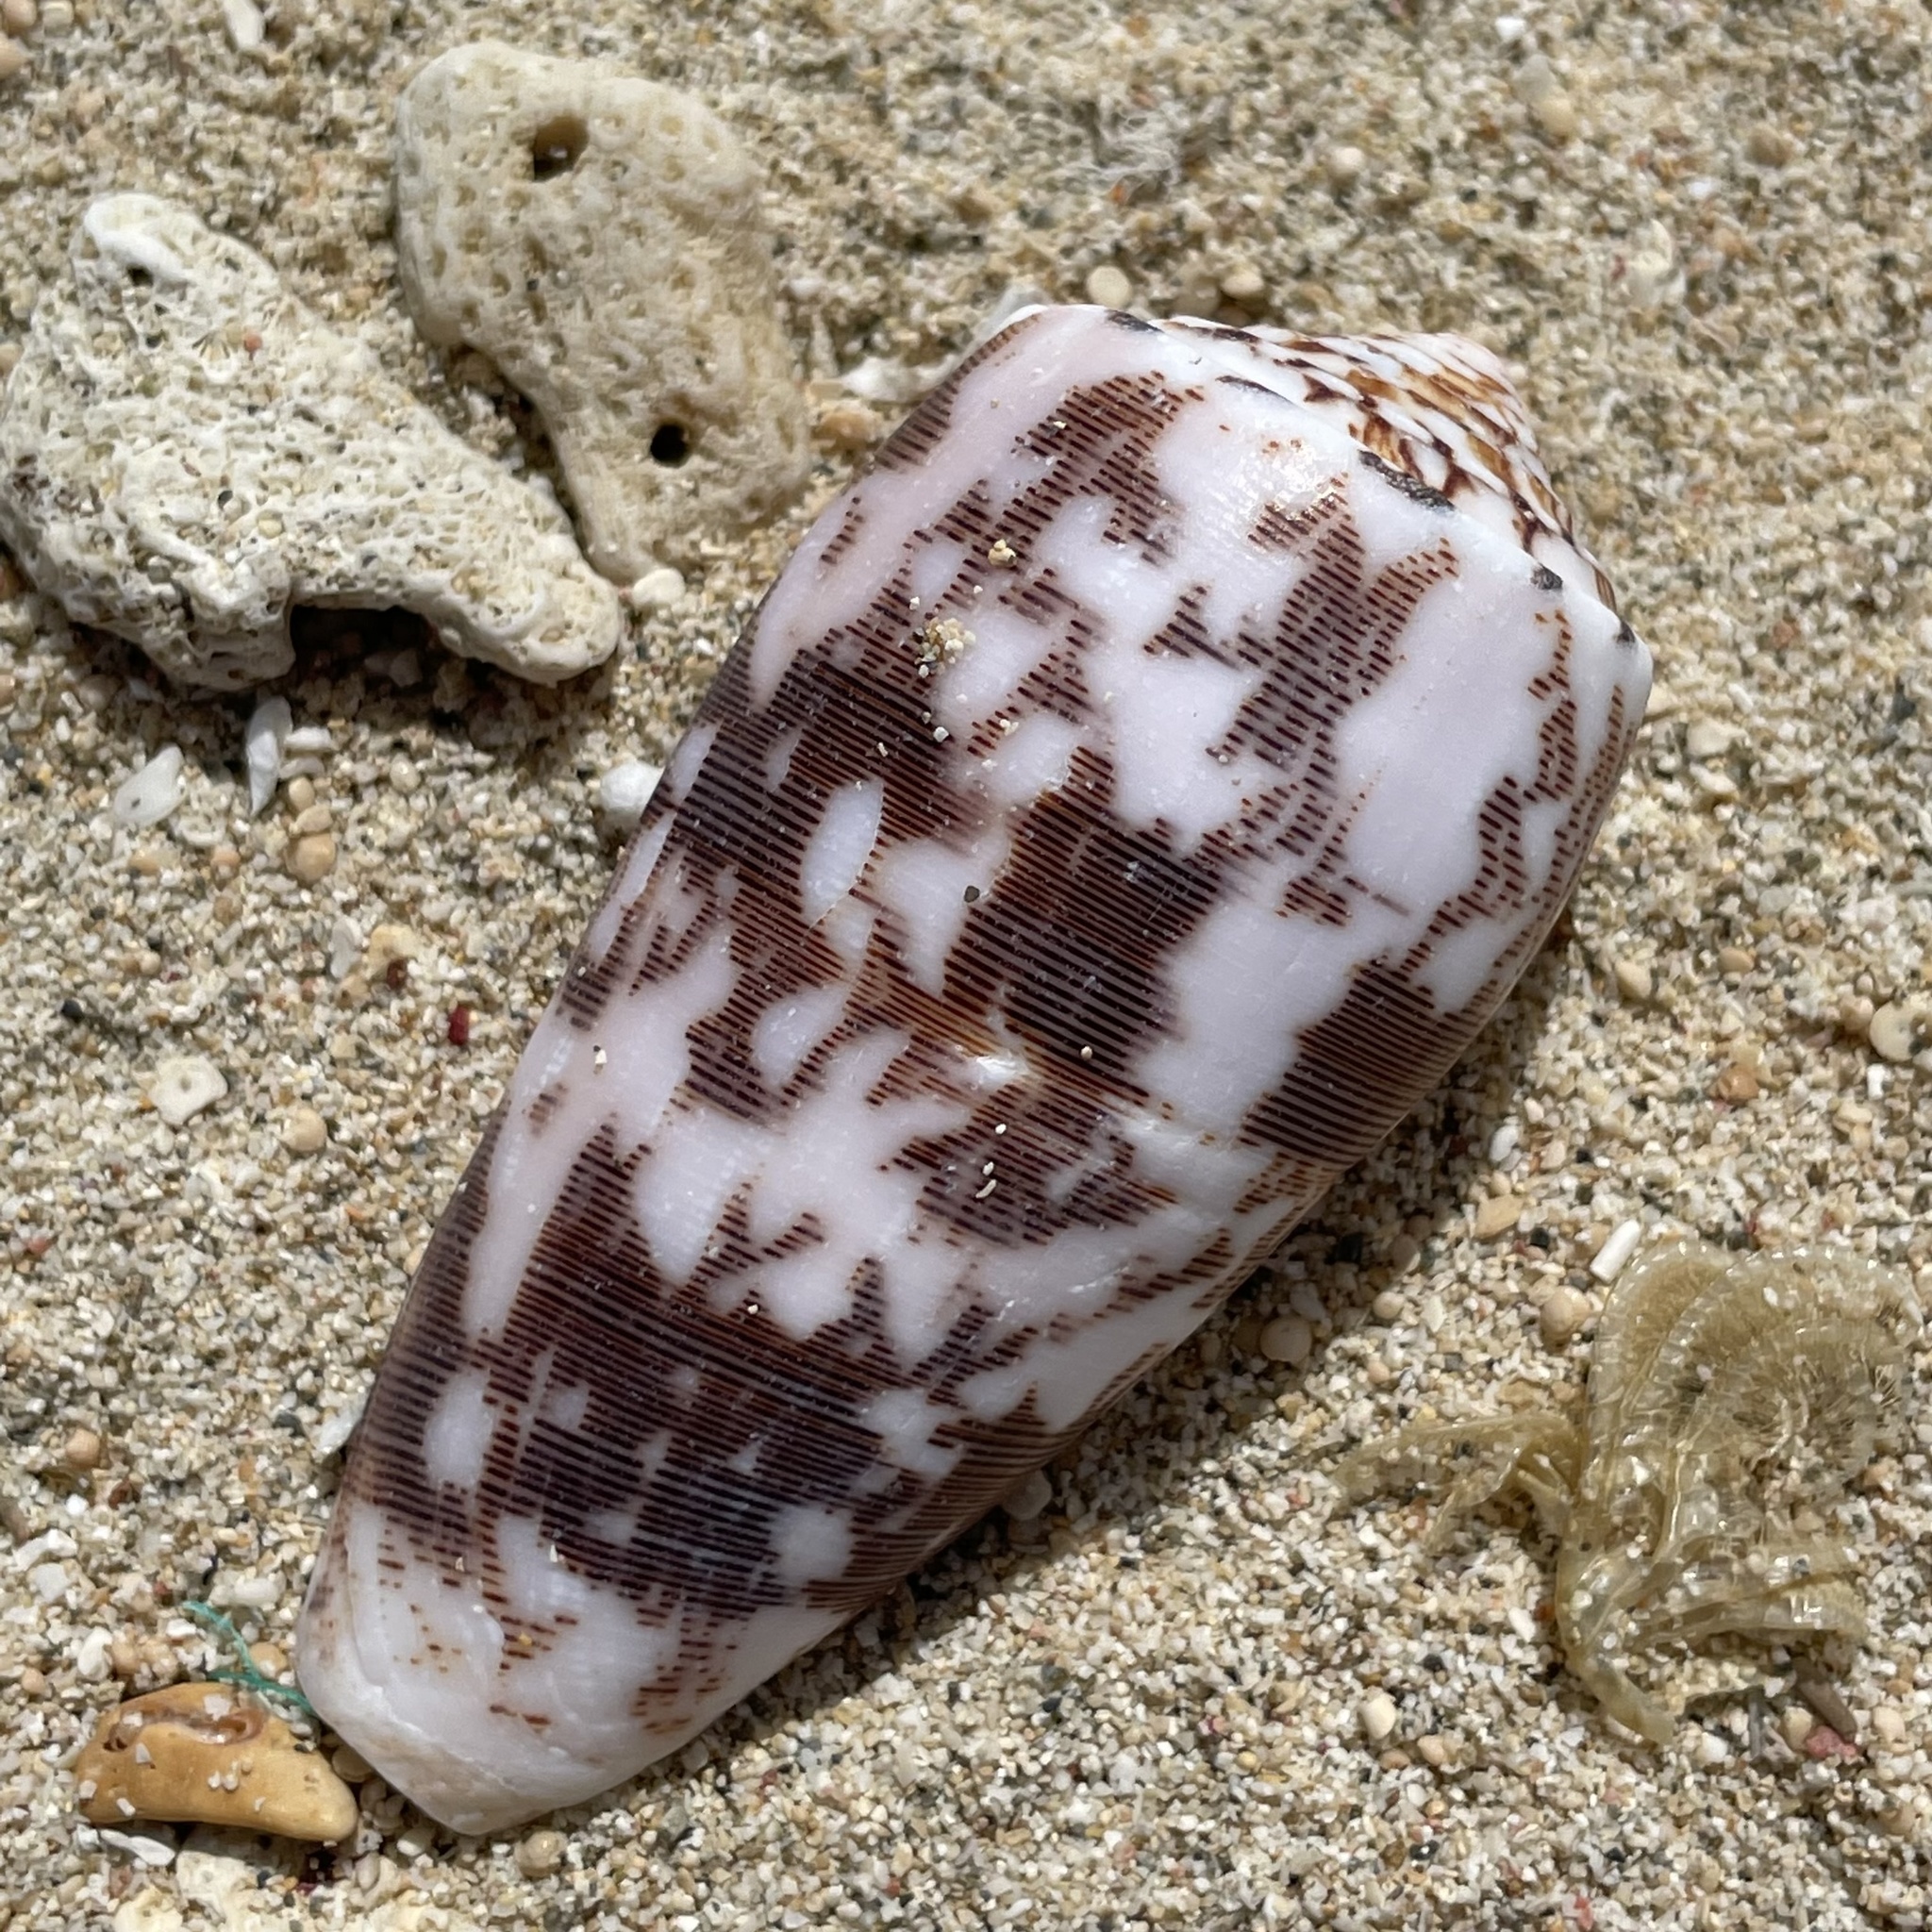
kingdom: Animalia
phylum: Mollusca
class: Gastropoda
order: Neogastropoda
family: Conidae
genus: Conus
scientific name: Conus striatus
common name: Striated cone
